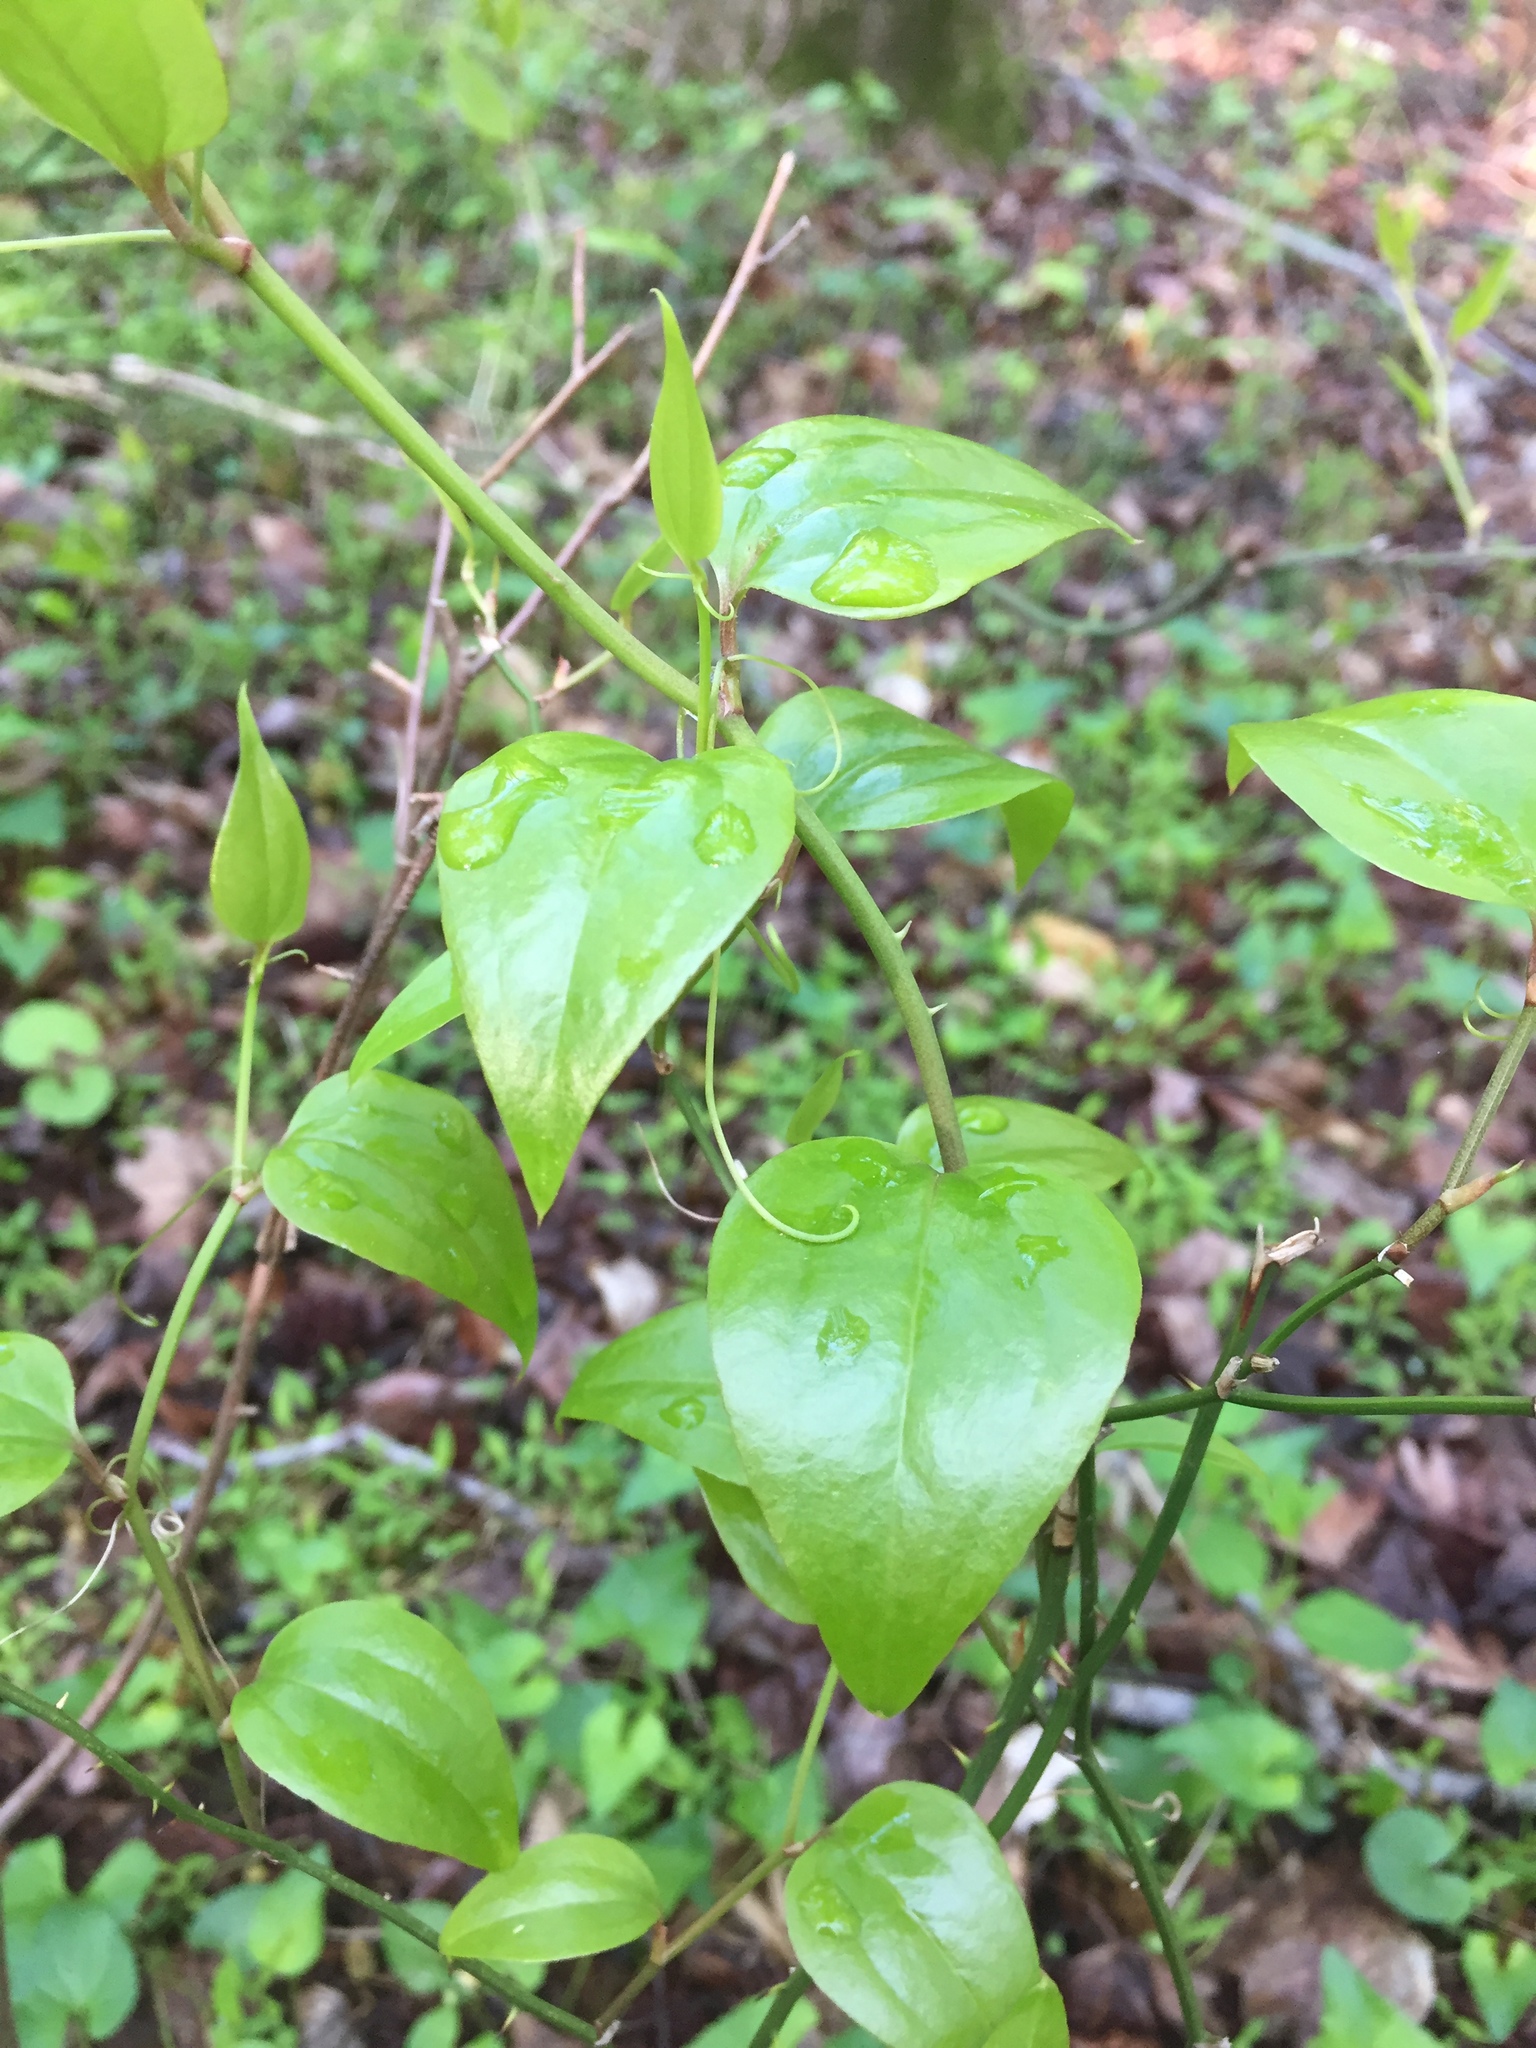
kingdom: Plantae
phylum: Tracheophyta
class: Liliopsida
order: Liliales
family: Smilacaceae
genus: Smilax
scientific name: Smilax rotundifolia
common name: Bullbriar
